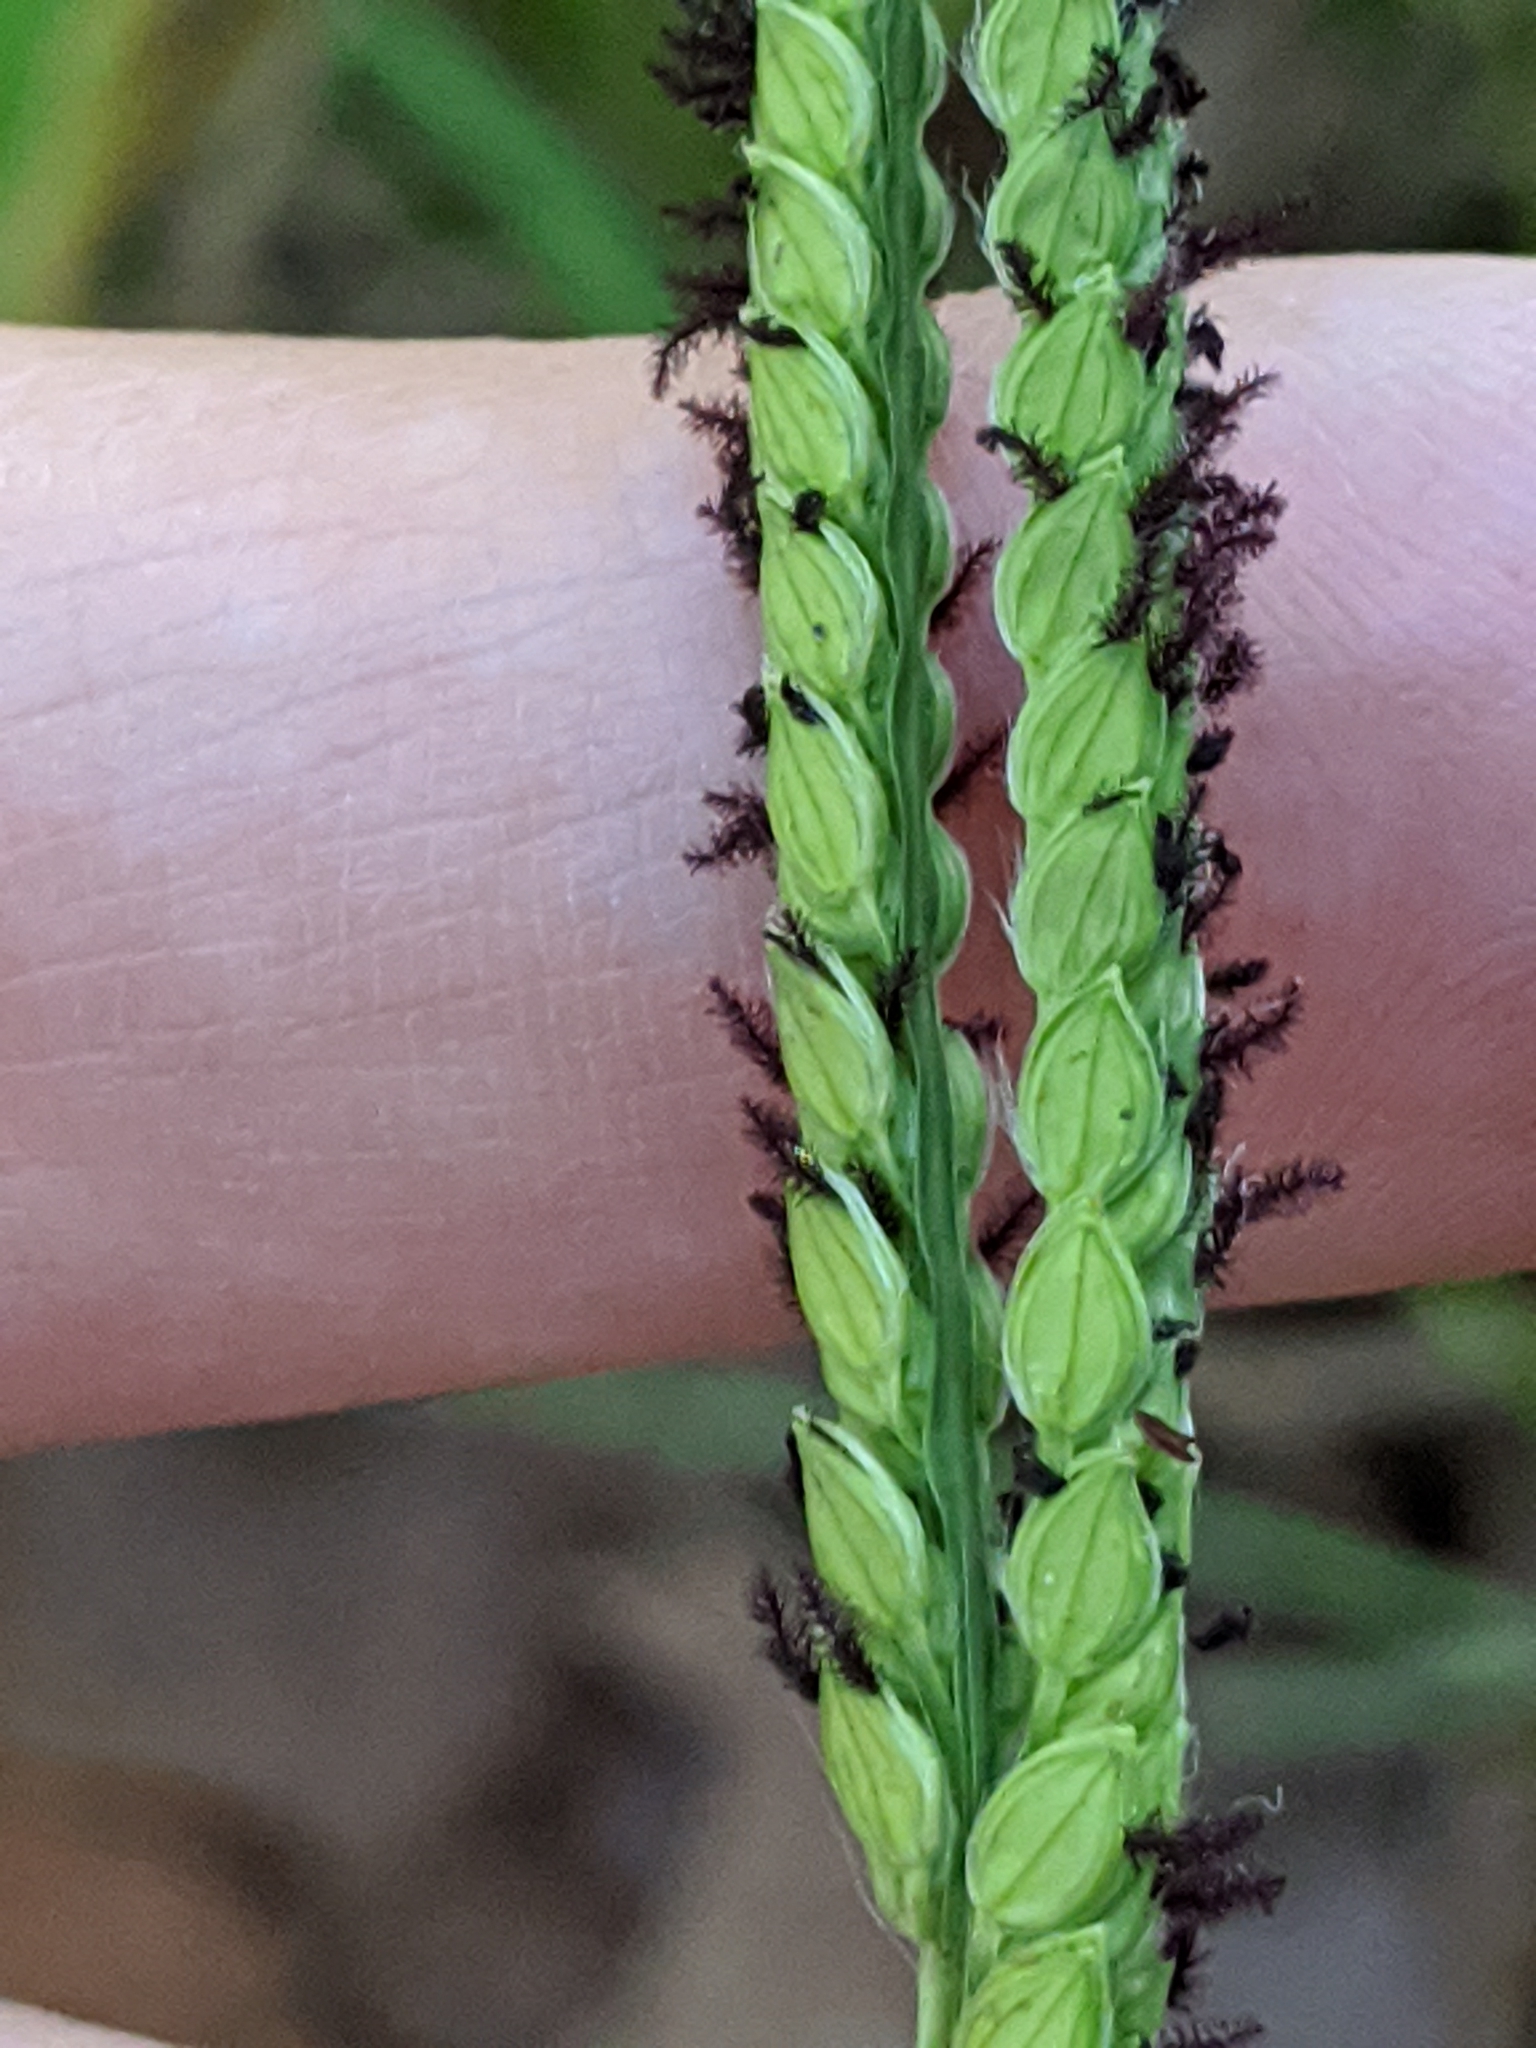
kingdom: Plantae
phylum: Tracheophyta
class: Liliopsida
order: Poales
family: Poaceae
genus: Paspalum
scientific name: Paspalum dilatatum
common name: Dallisgrass
